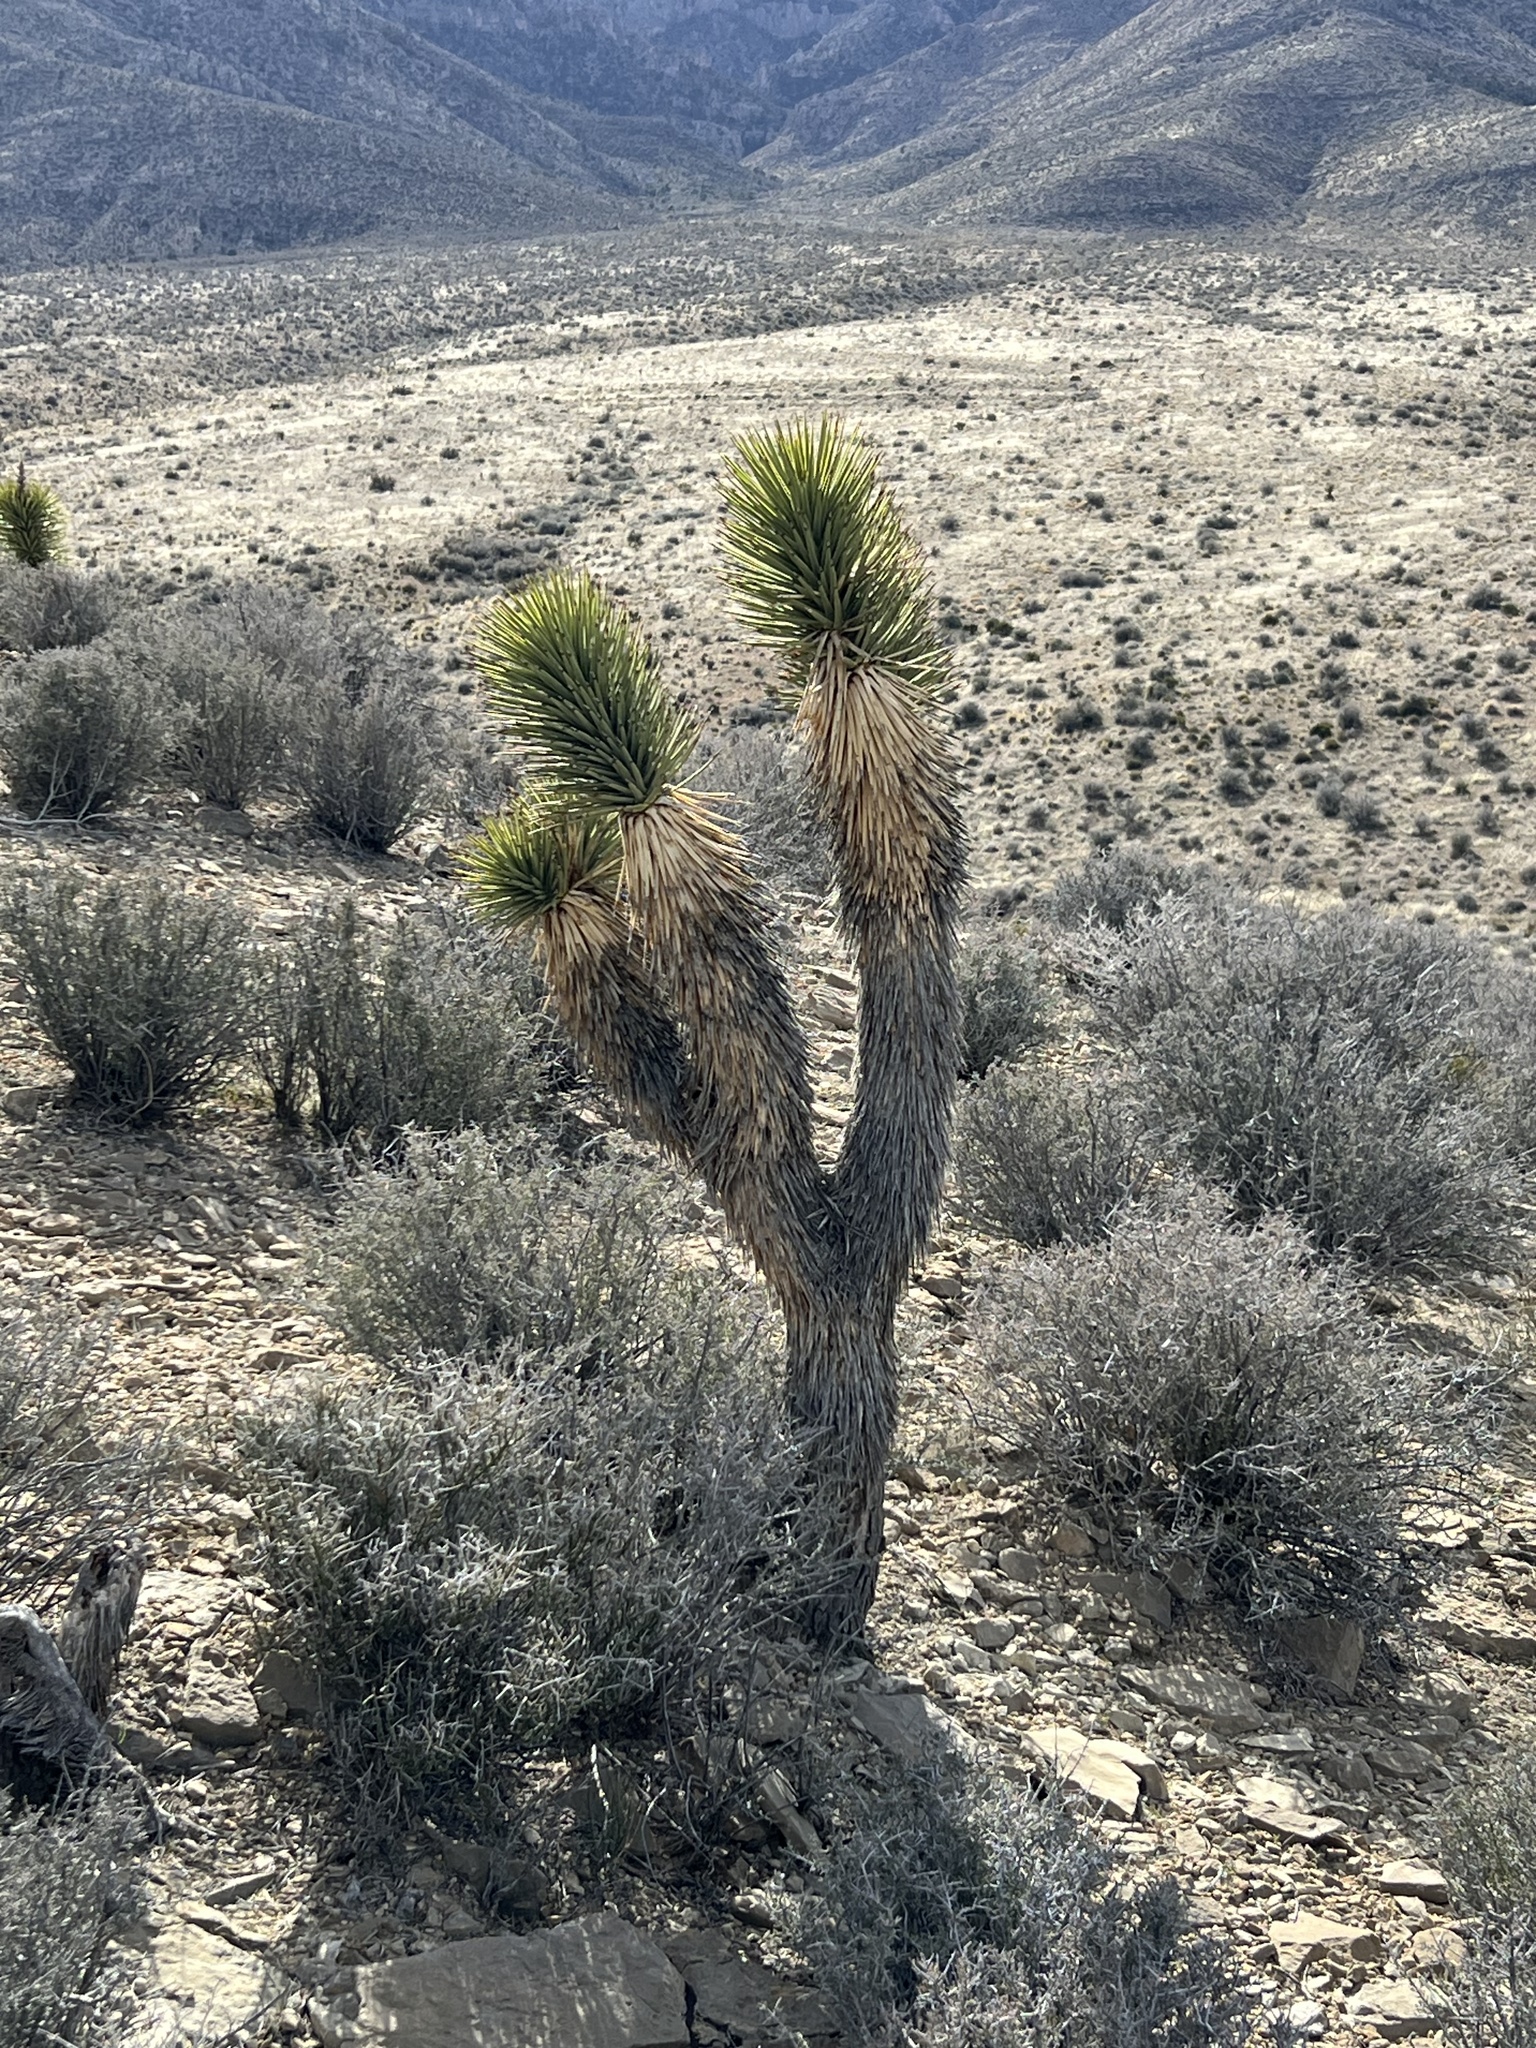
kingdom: Plantae
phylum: Tracheophyta
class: Liliopsida
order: Asparagales
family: Asparagaceae
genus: Yucca
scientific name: Yucca brevifolia
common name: Joshua tree
